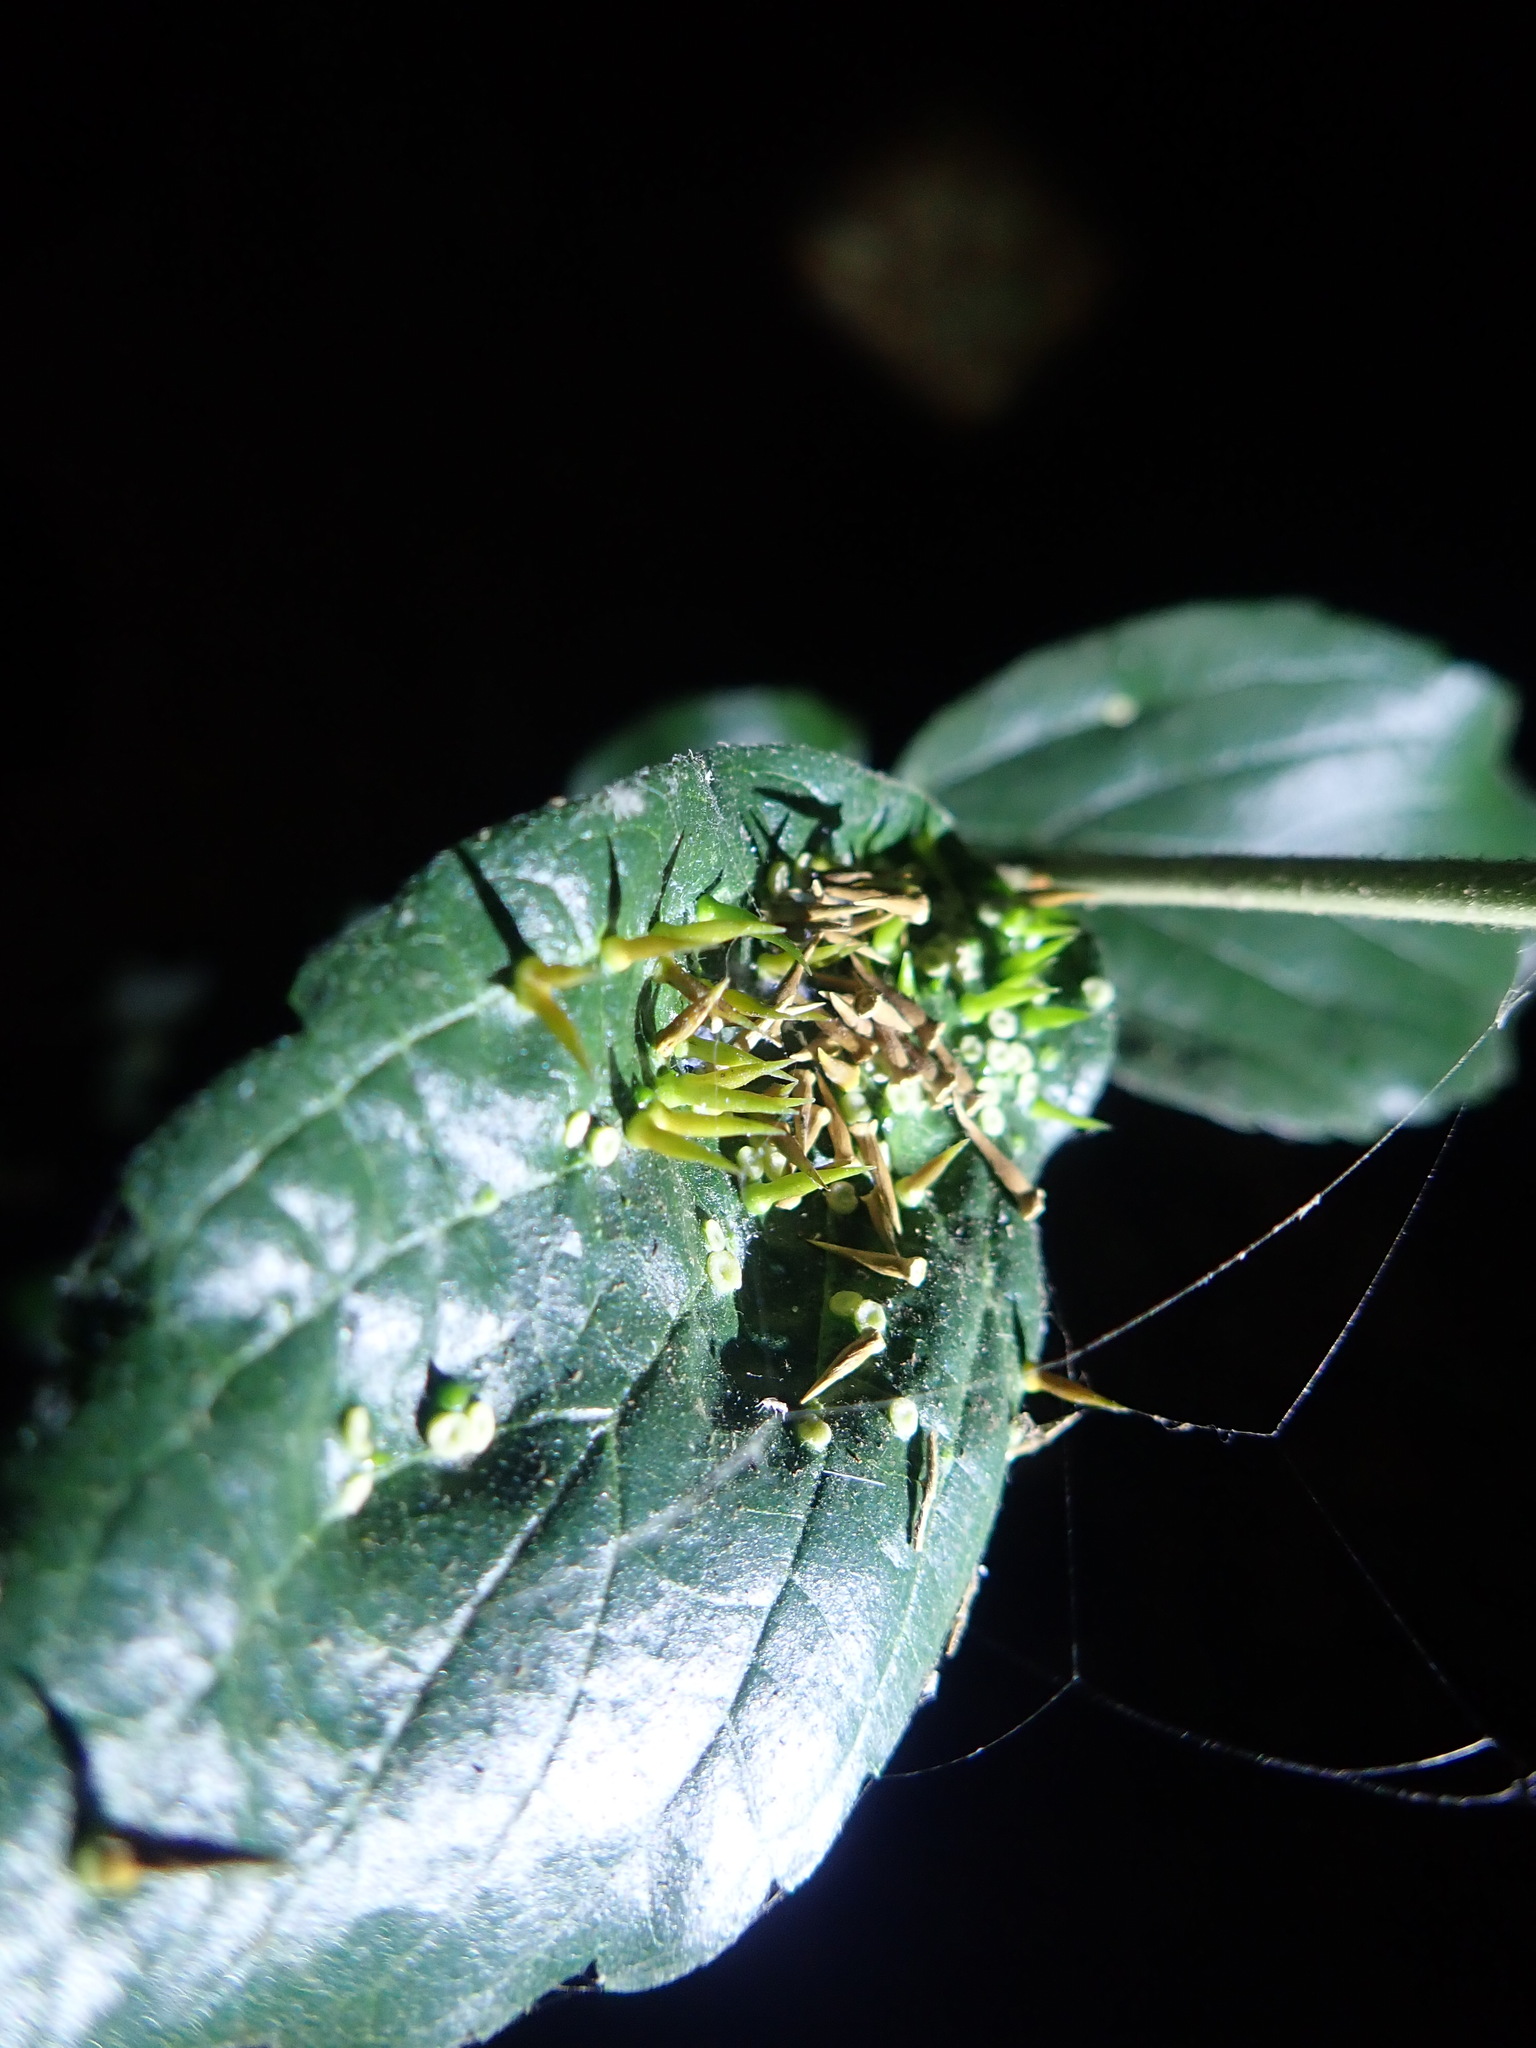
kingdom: Plantae
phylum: Tracheophyta
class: Magnoliopsida
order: Rosales
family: Cannabaceae
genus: Celtis
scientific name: Celtis sinensis
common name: Chinese hackberry
